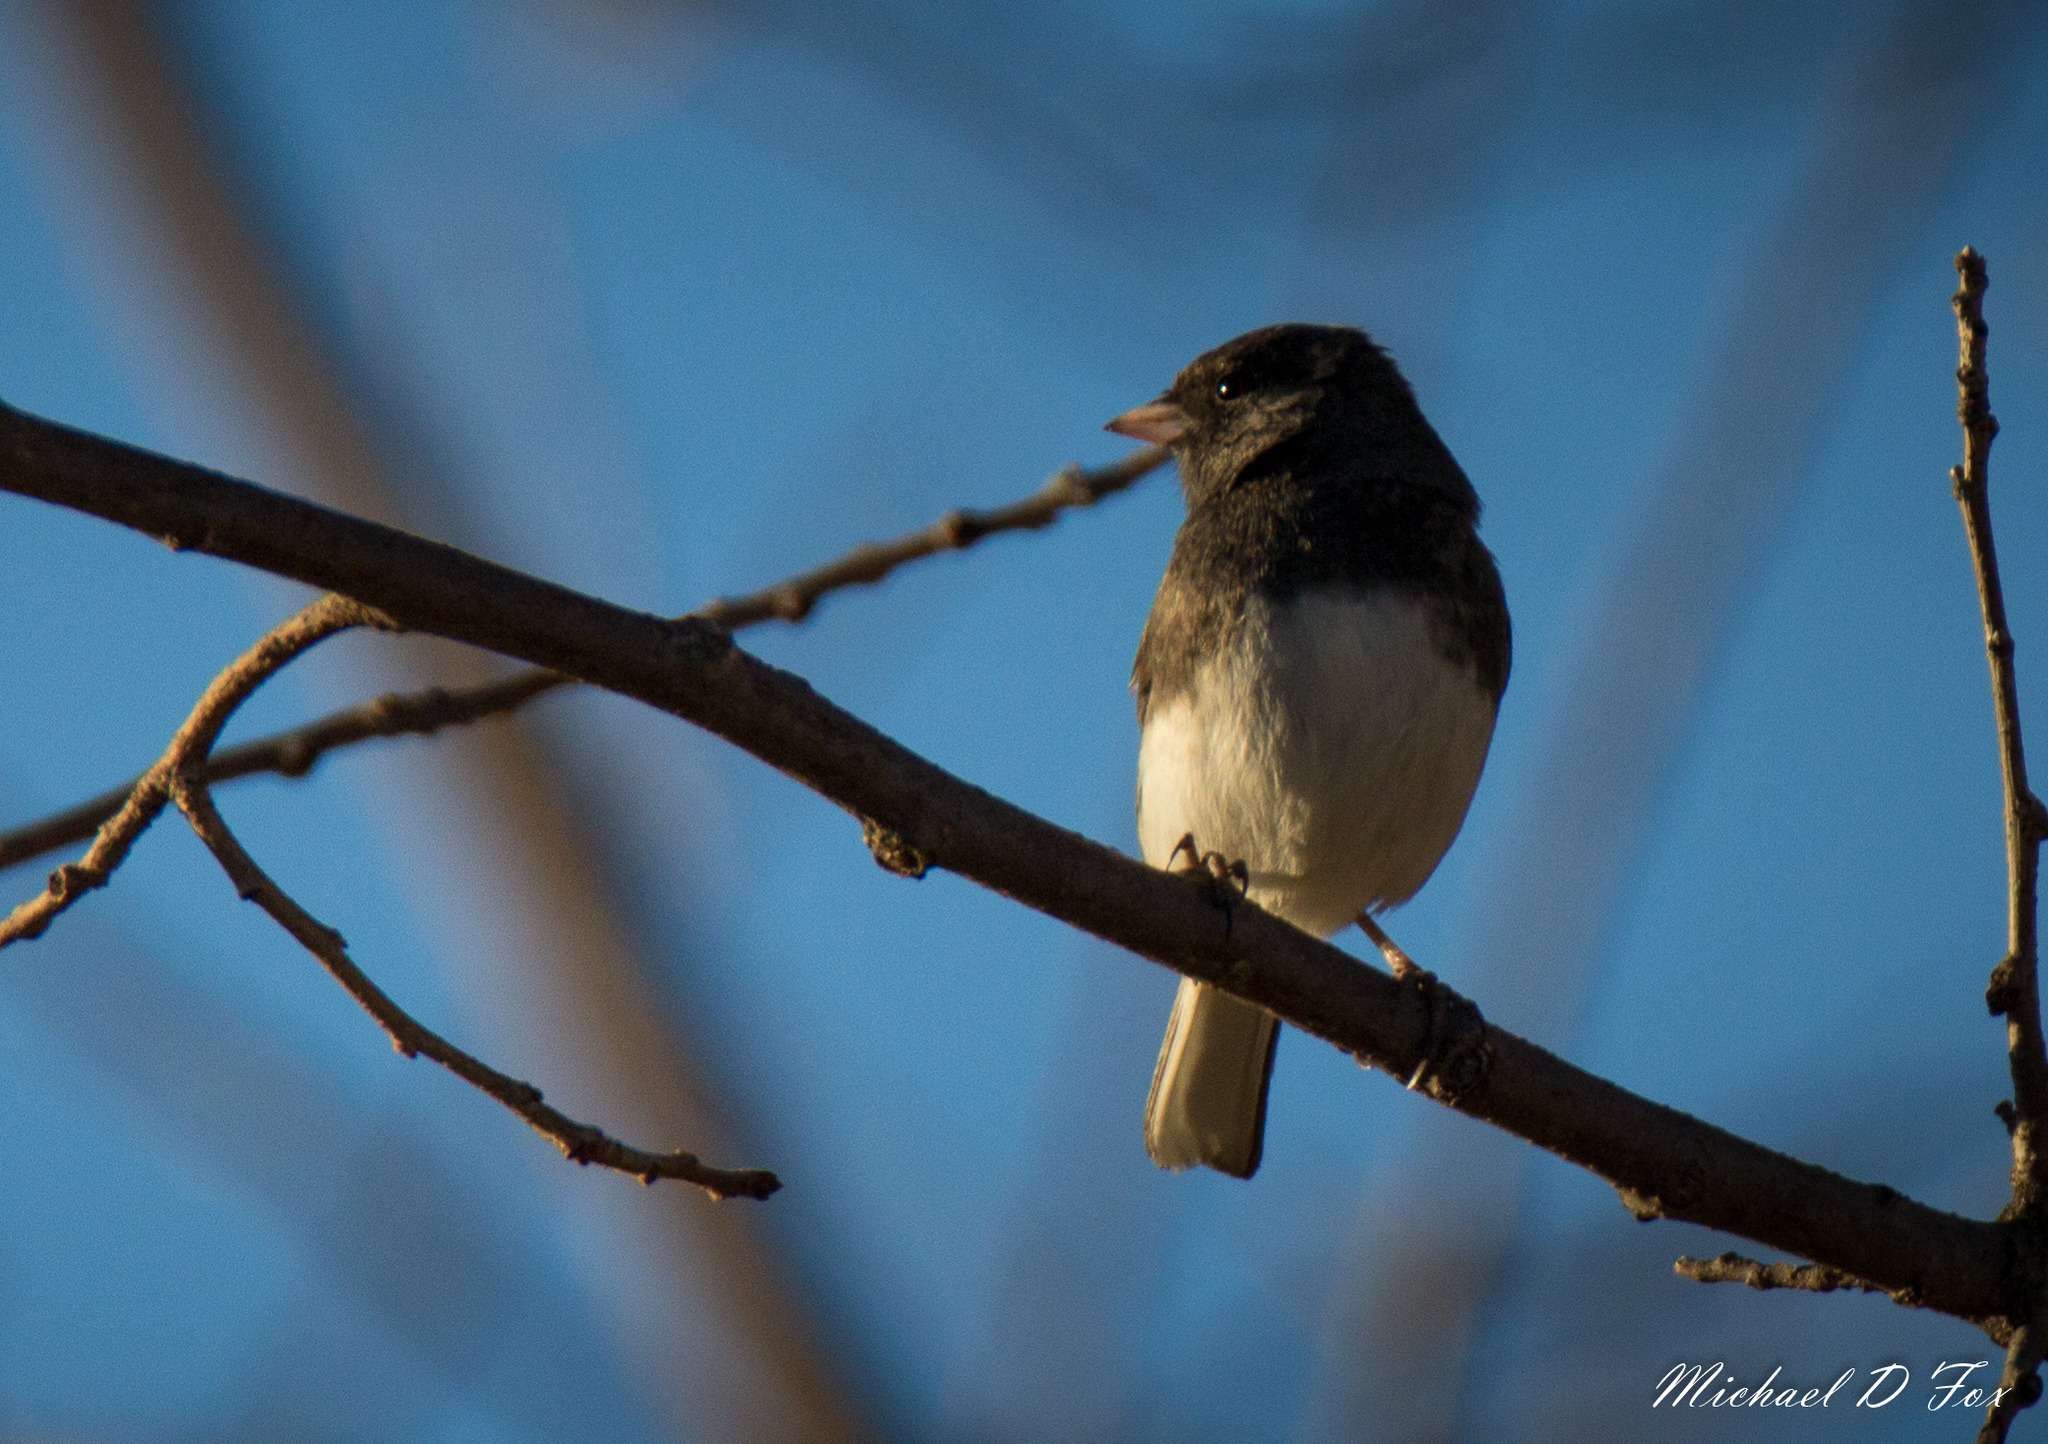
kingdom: Animalia
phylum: Chordata
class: Aves
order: Passeriformes
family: Passerellidae
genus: Junco
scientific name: Junco hyemalis
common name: Dark-eyed junco
